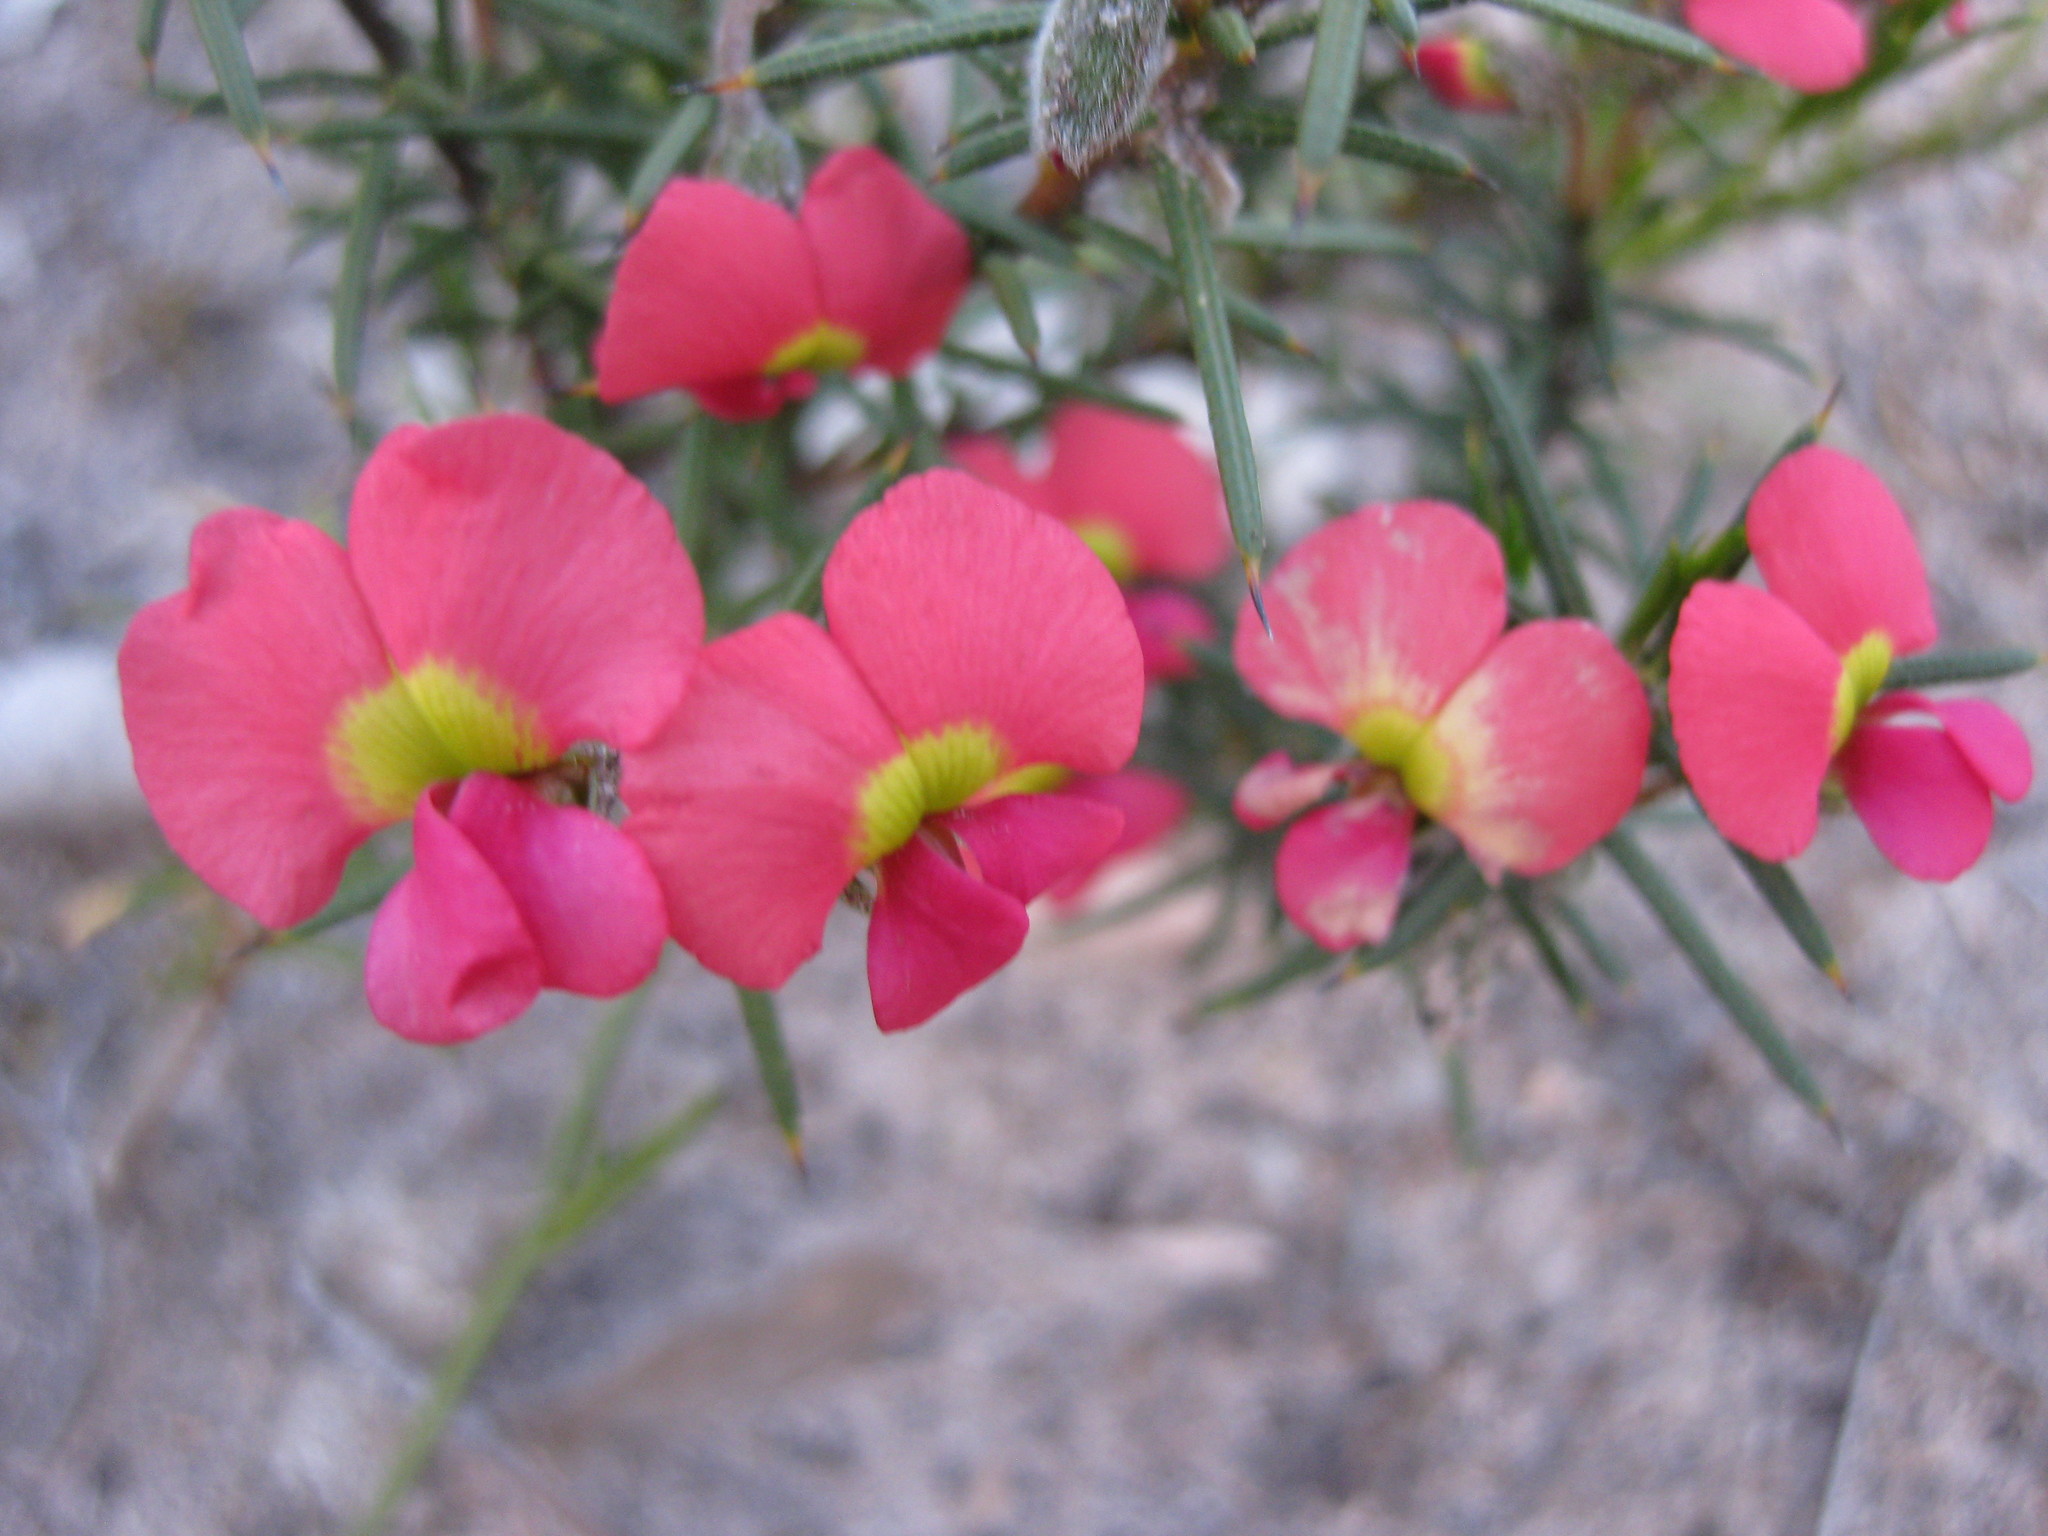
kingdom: Plantae
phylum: Tracheophyta
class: Magnoliopsida
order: Fabales
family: Fabaceae
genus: Chorizema
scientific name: Chorizema aciculare
